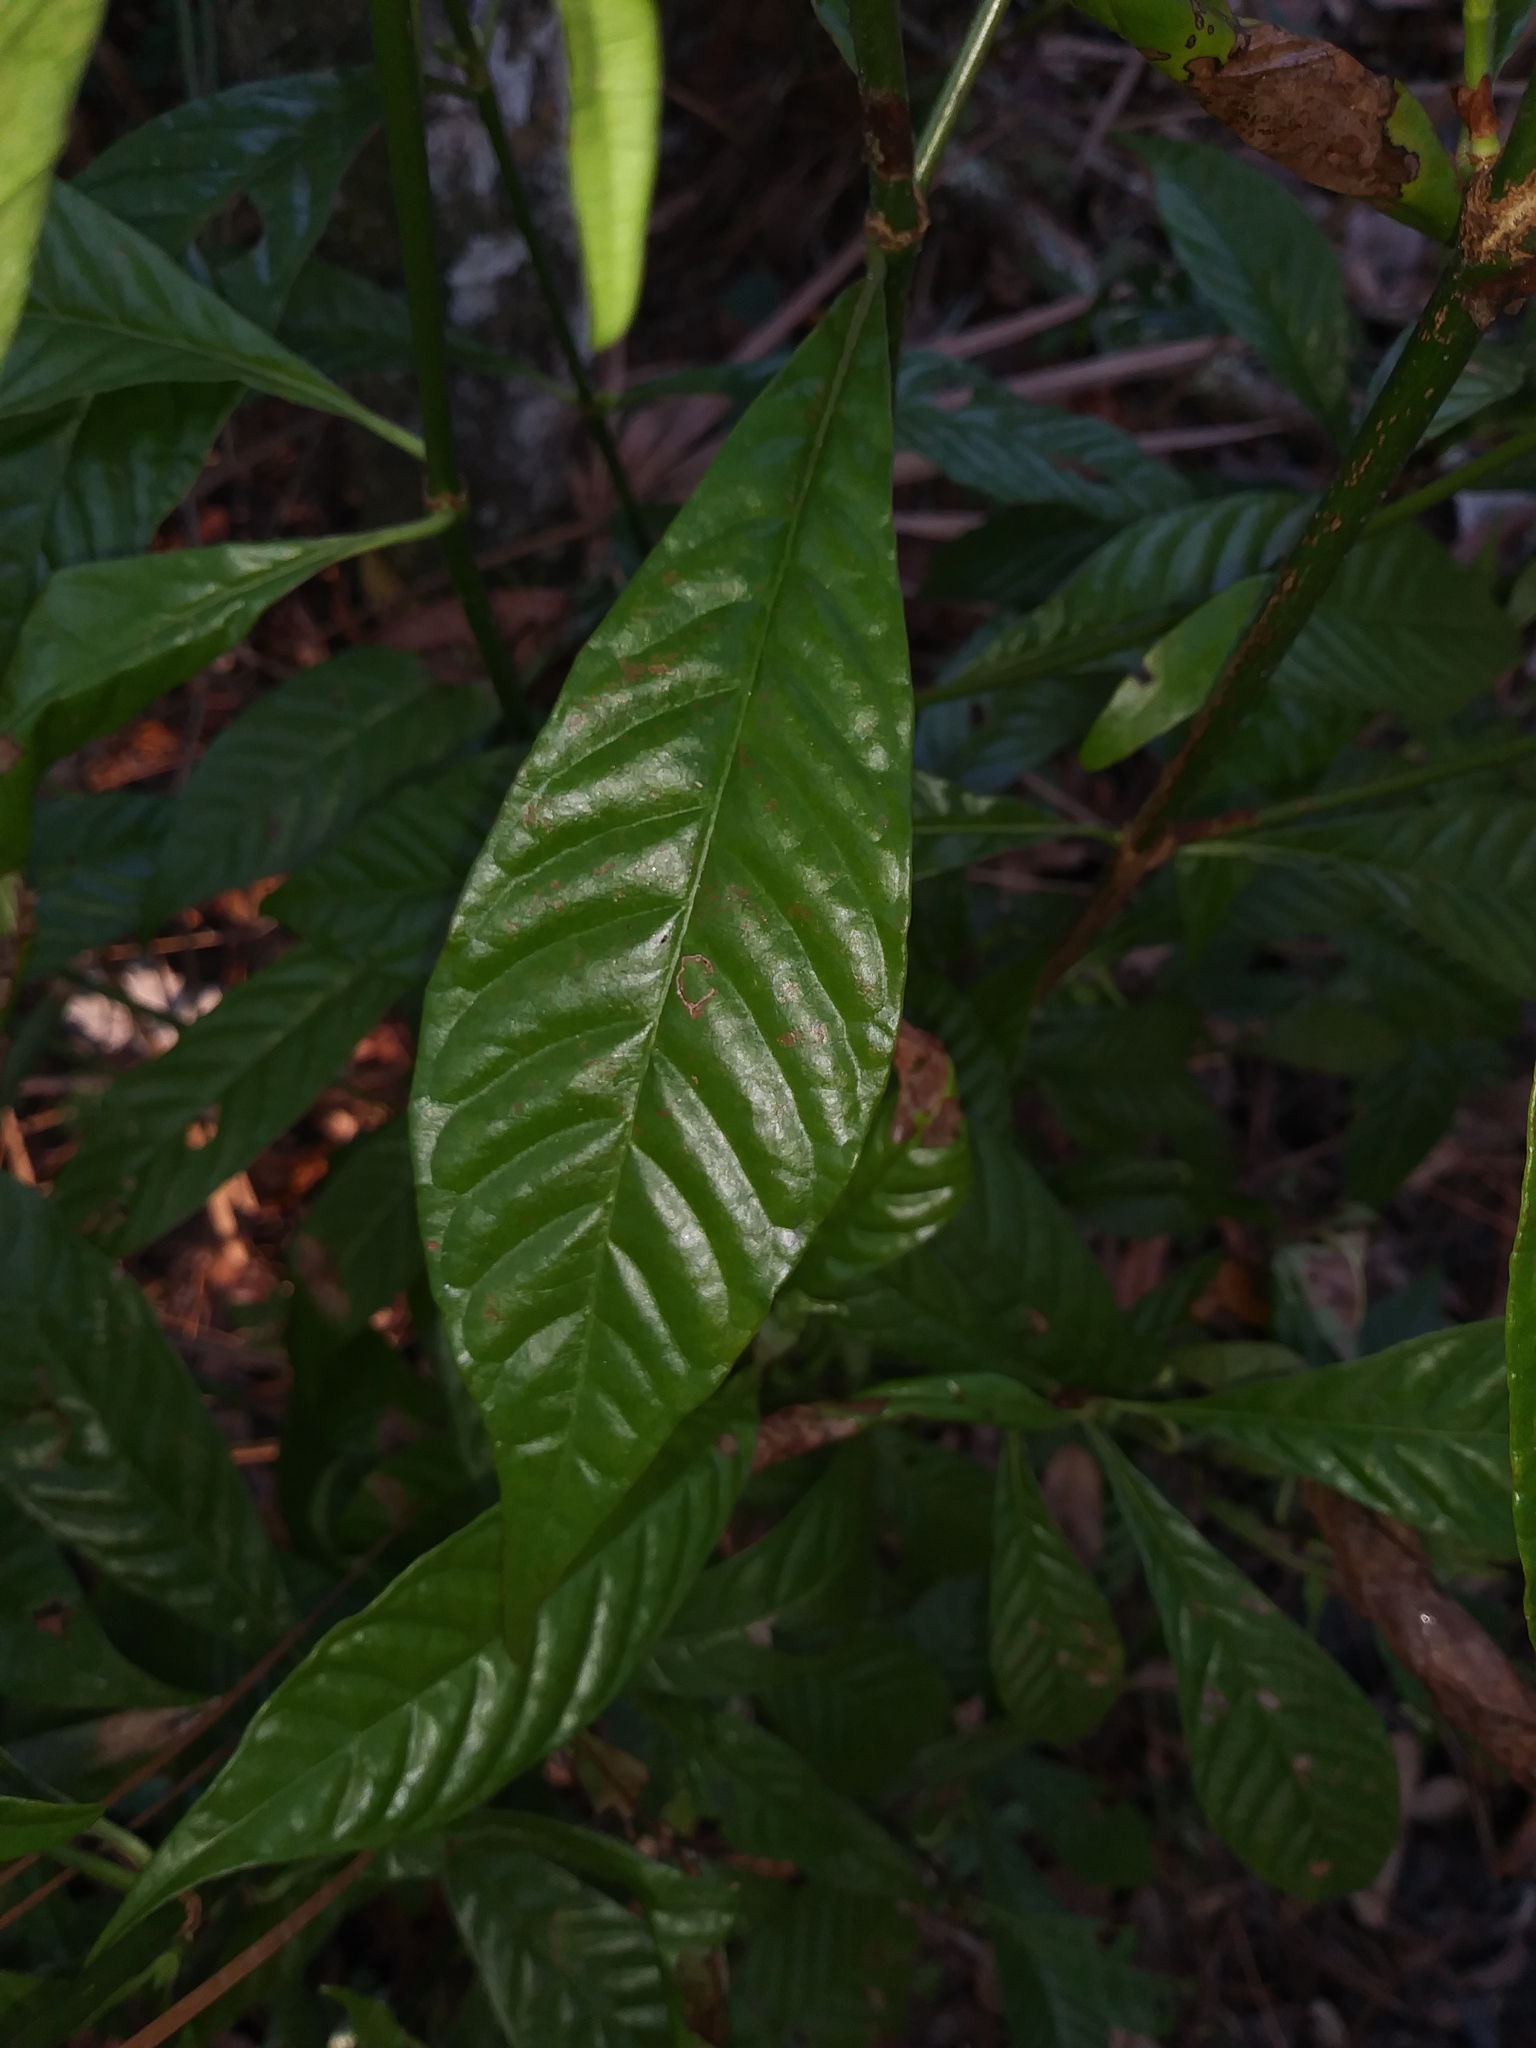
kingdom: Plantae
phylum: Tracheophyta
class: Magnoliopsida
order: Gentianales
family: Rubiaceae
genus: Psychotria
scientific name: Psychotria nervosa
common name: Bastard cankerberry
